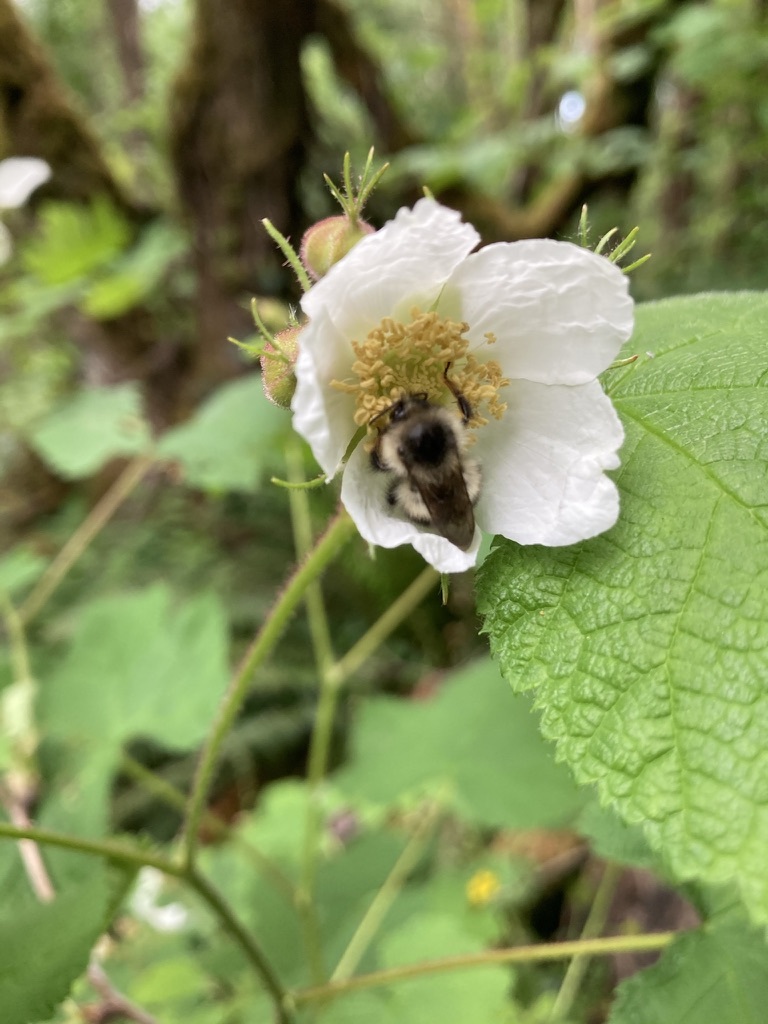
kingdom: Animalia
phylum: Arthropoda
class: Insecta
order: Hymenoptera
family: Apidae
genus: Bombus
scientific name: Bombus mixtus
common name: Fuzzy-horned bumble bee
